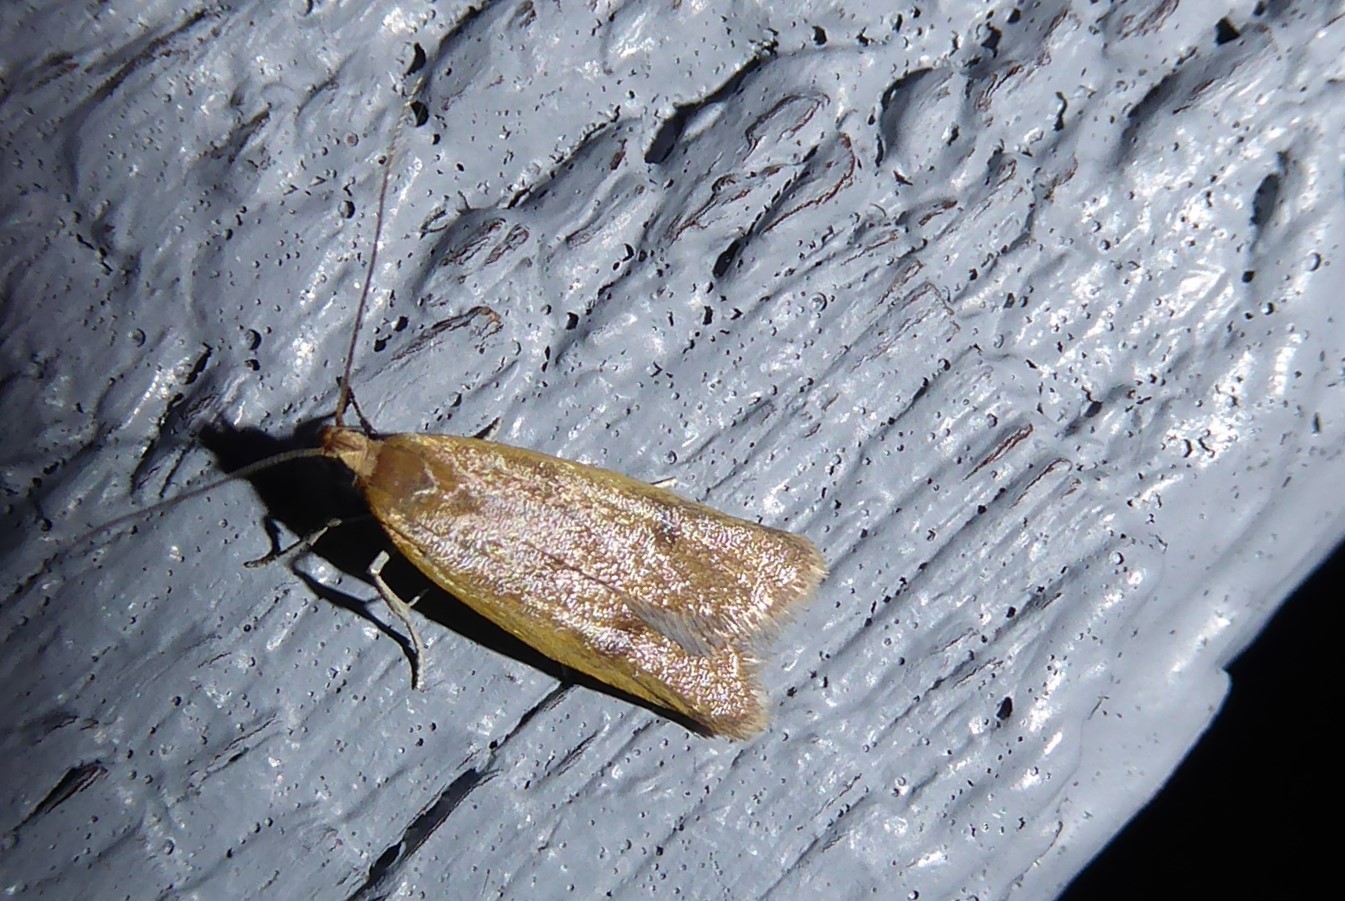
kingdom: Animalia
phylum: Arthropoda
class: Insecta
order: Lepidoptera
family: Oecophoridae
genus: Gymnobathra
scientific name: Gymnobathra parca
